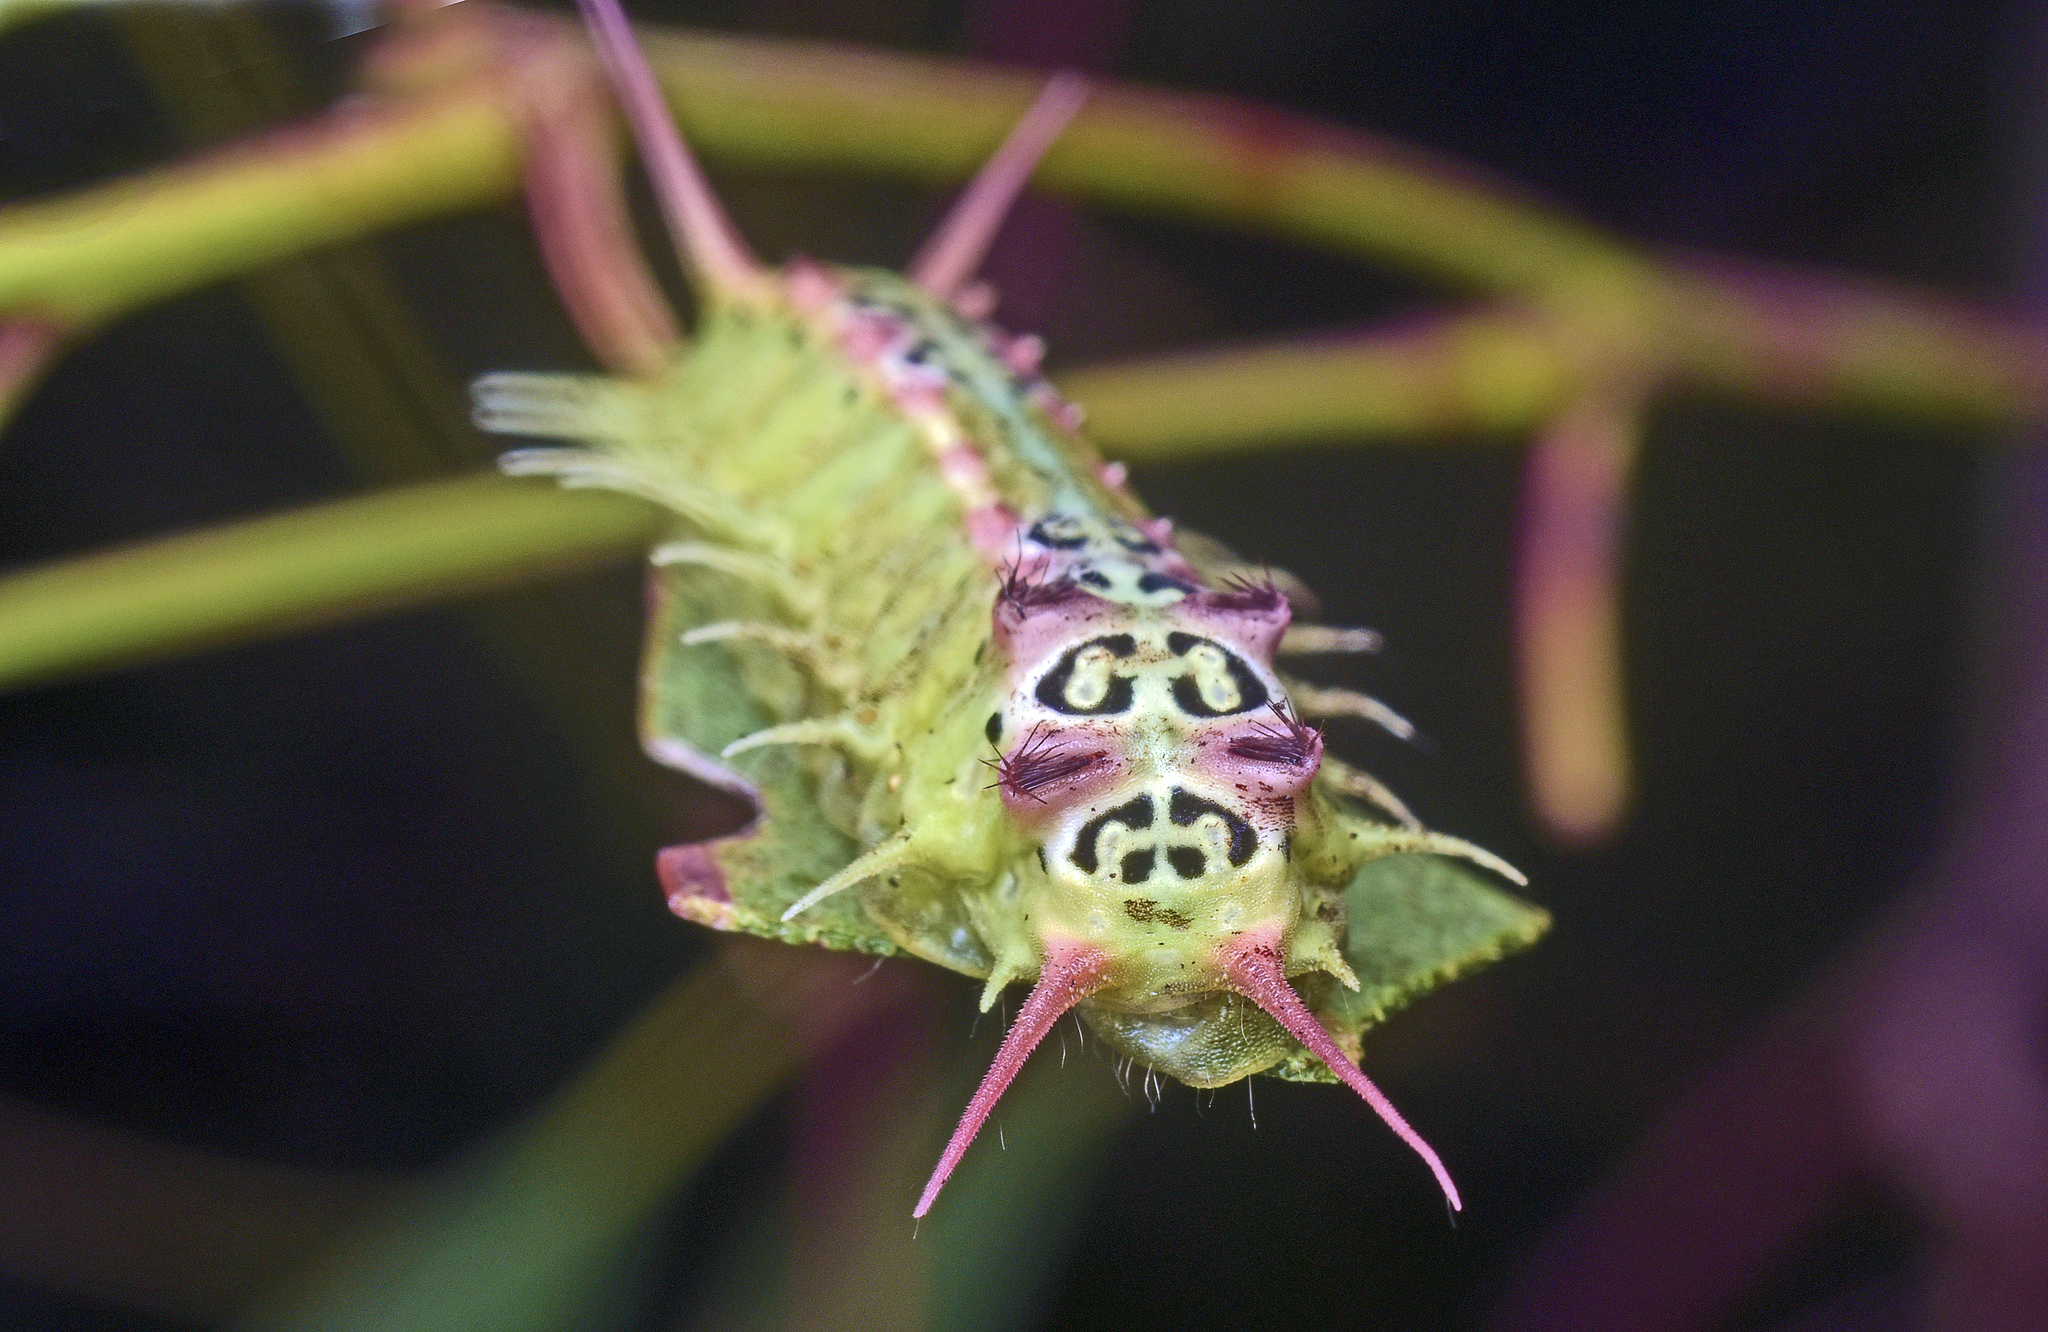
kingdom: Animalia
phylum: Arthropoda
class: Insecta
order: Lepidoptera
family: Limacodidae
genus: Doratifera
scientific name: Doratifera quadriguttata
